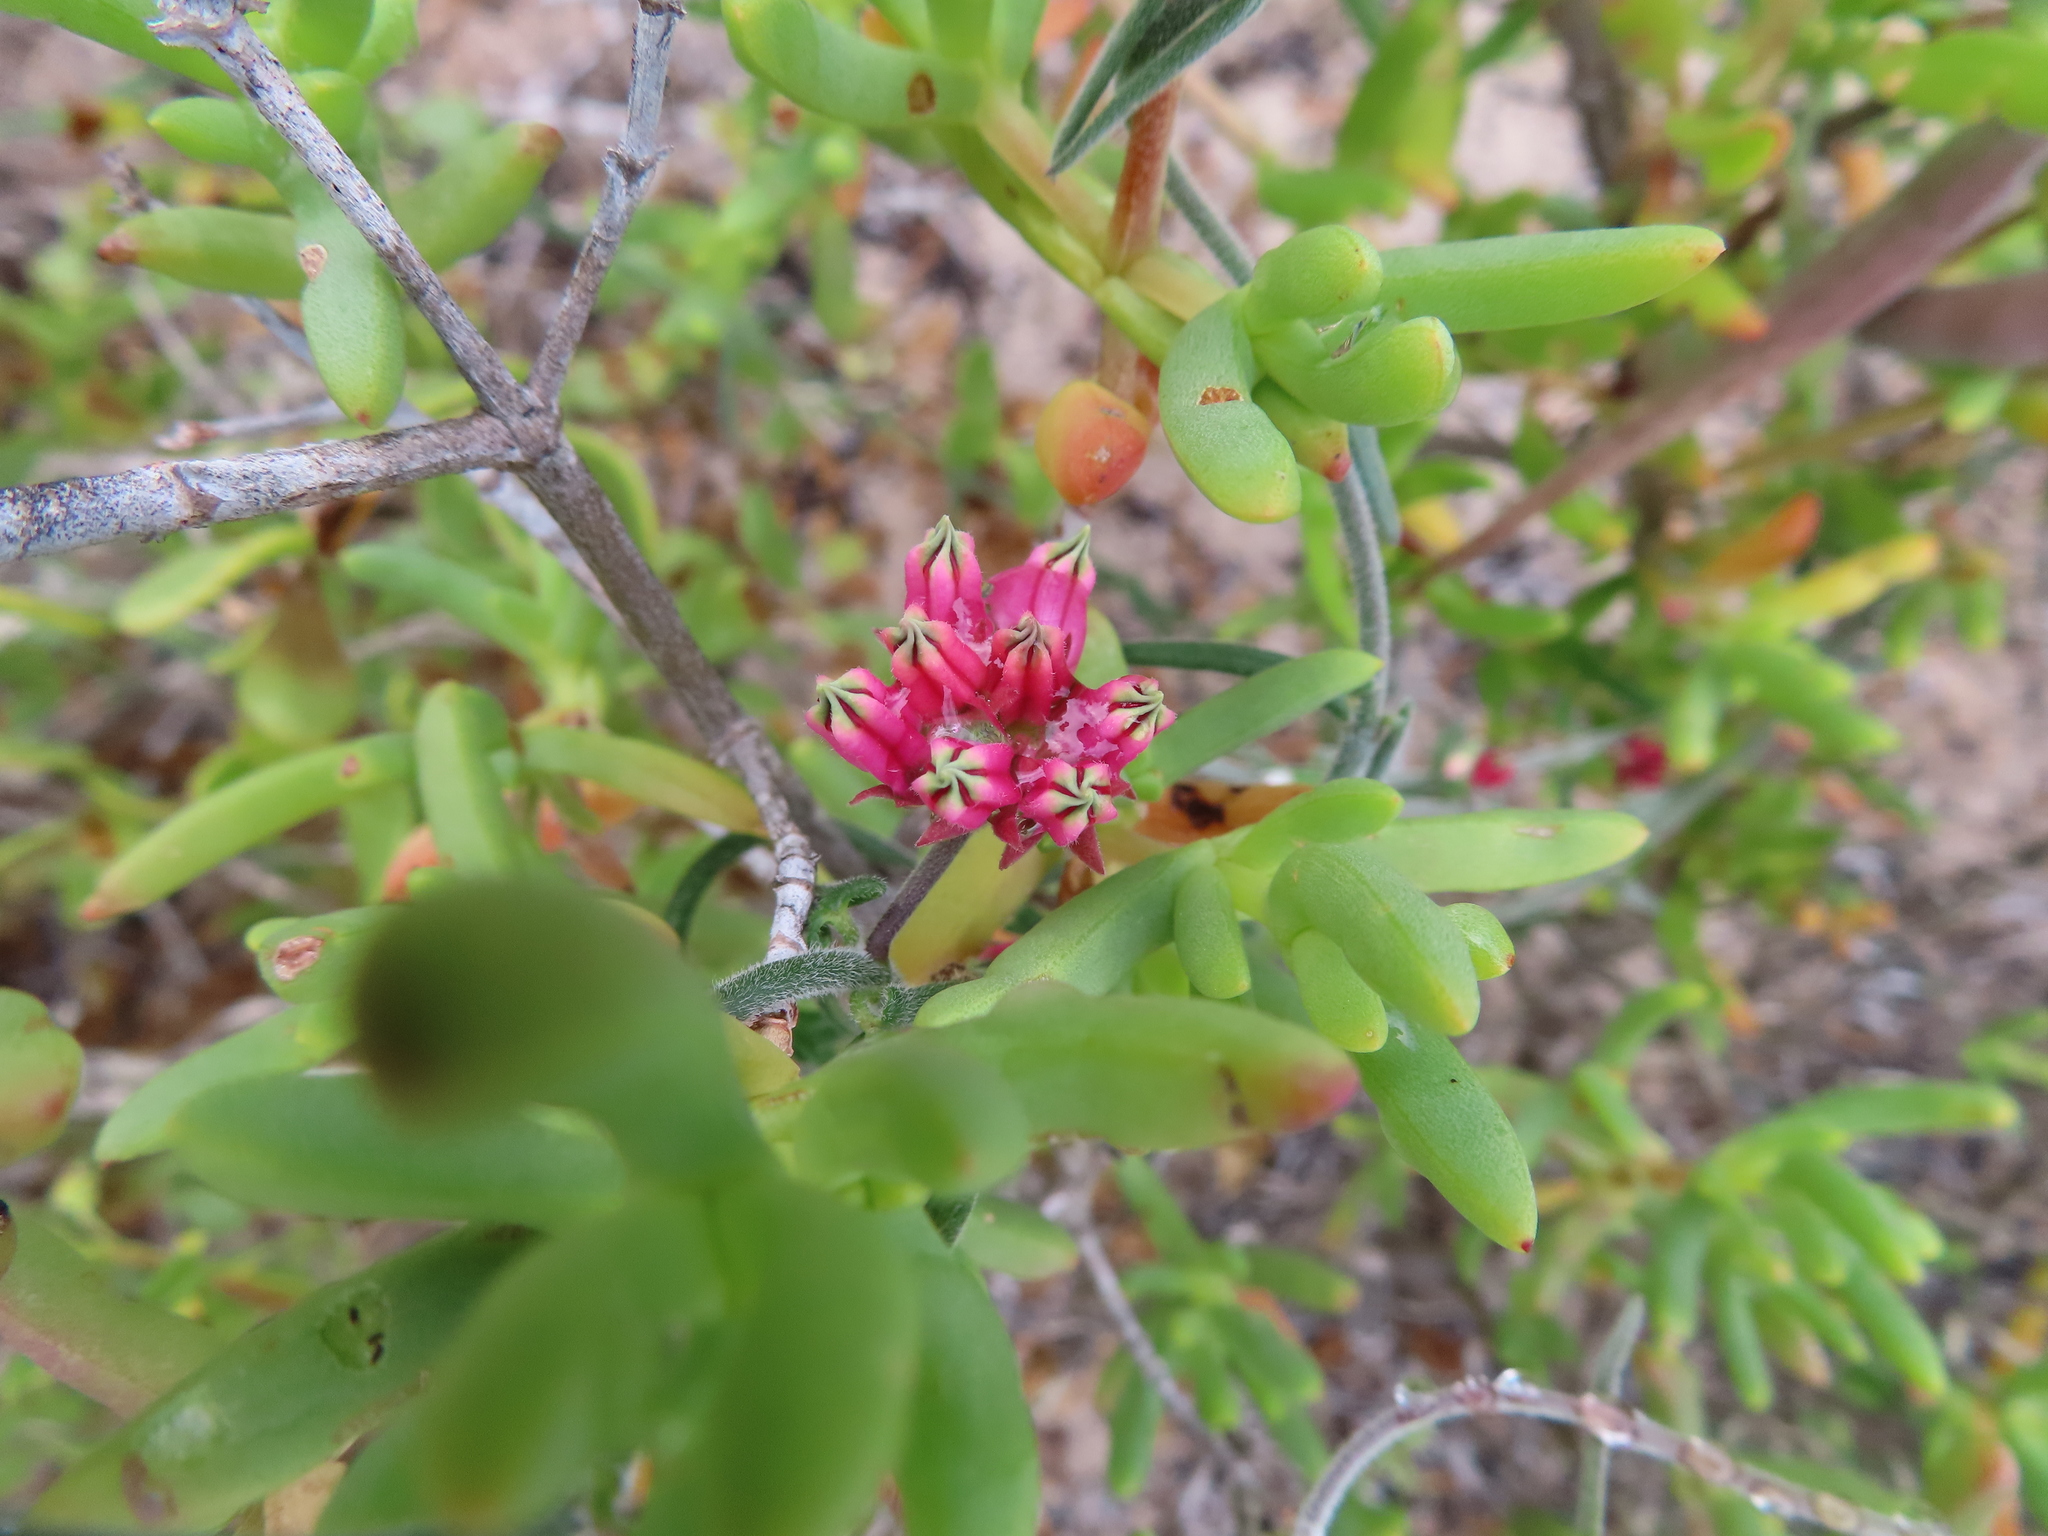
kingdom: Plantae
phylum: Tracheophyta
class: Magnoliopsida
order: Gentianales
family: Apocynaceae
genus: Microloma
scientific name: Microloma sagittatum
